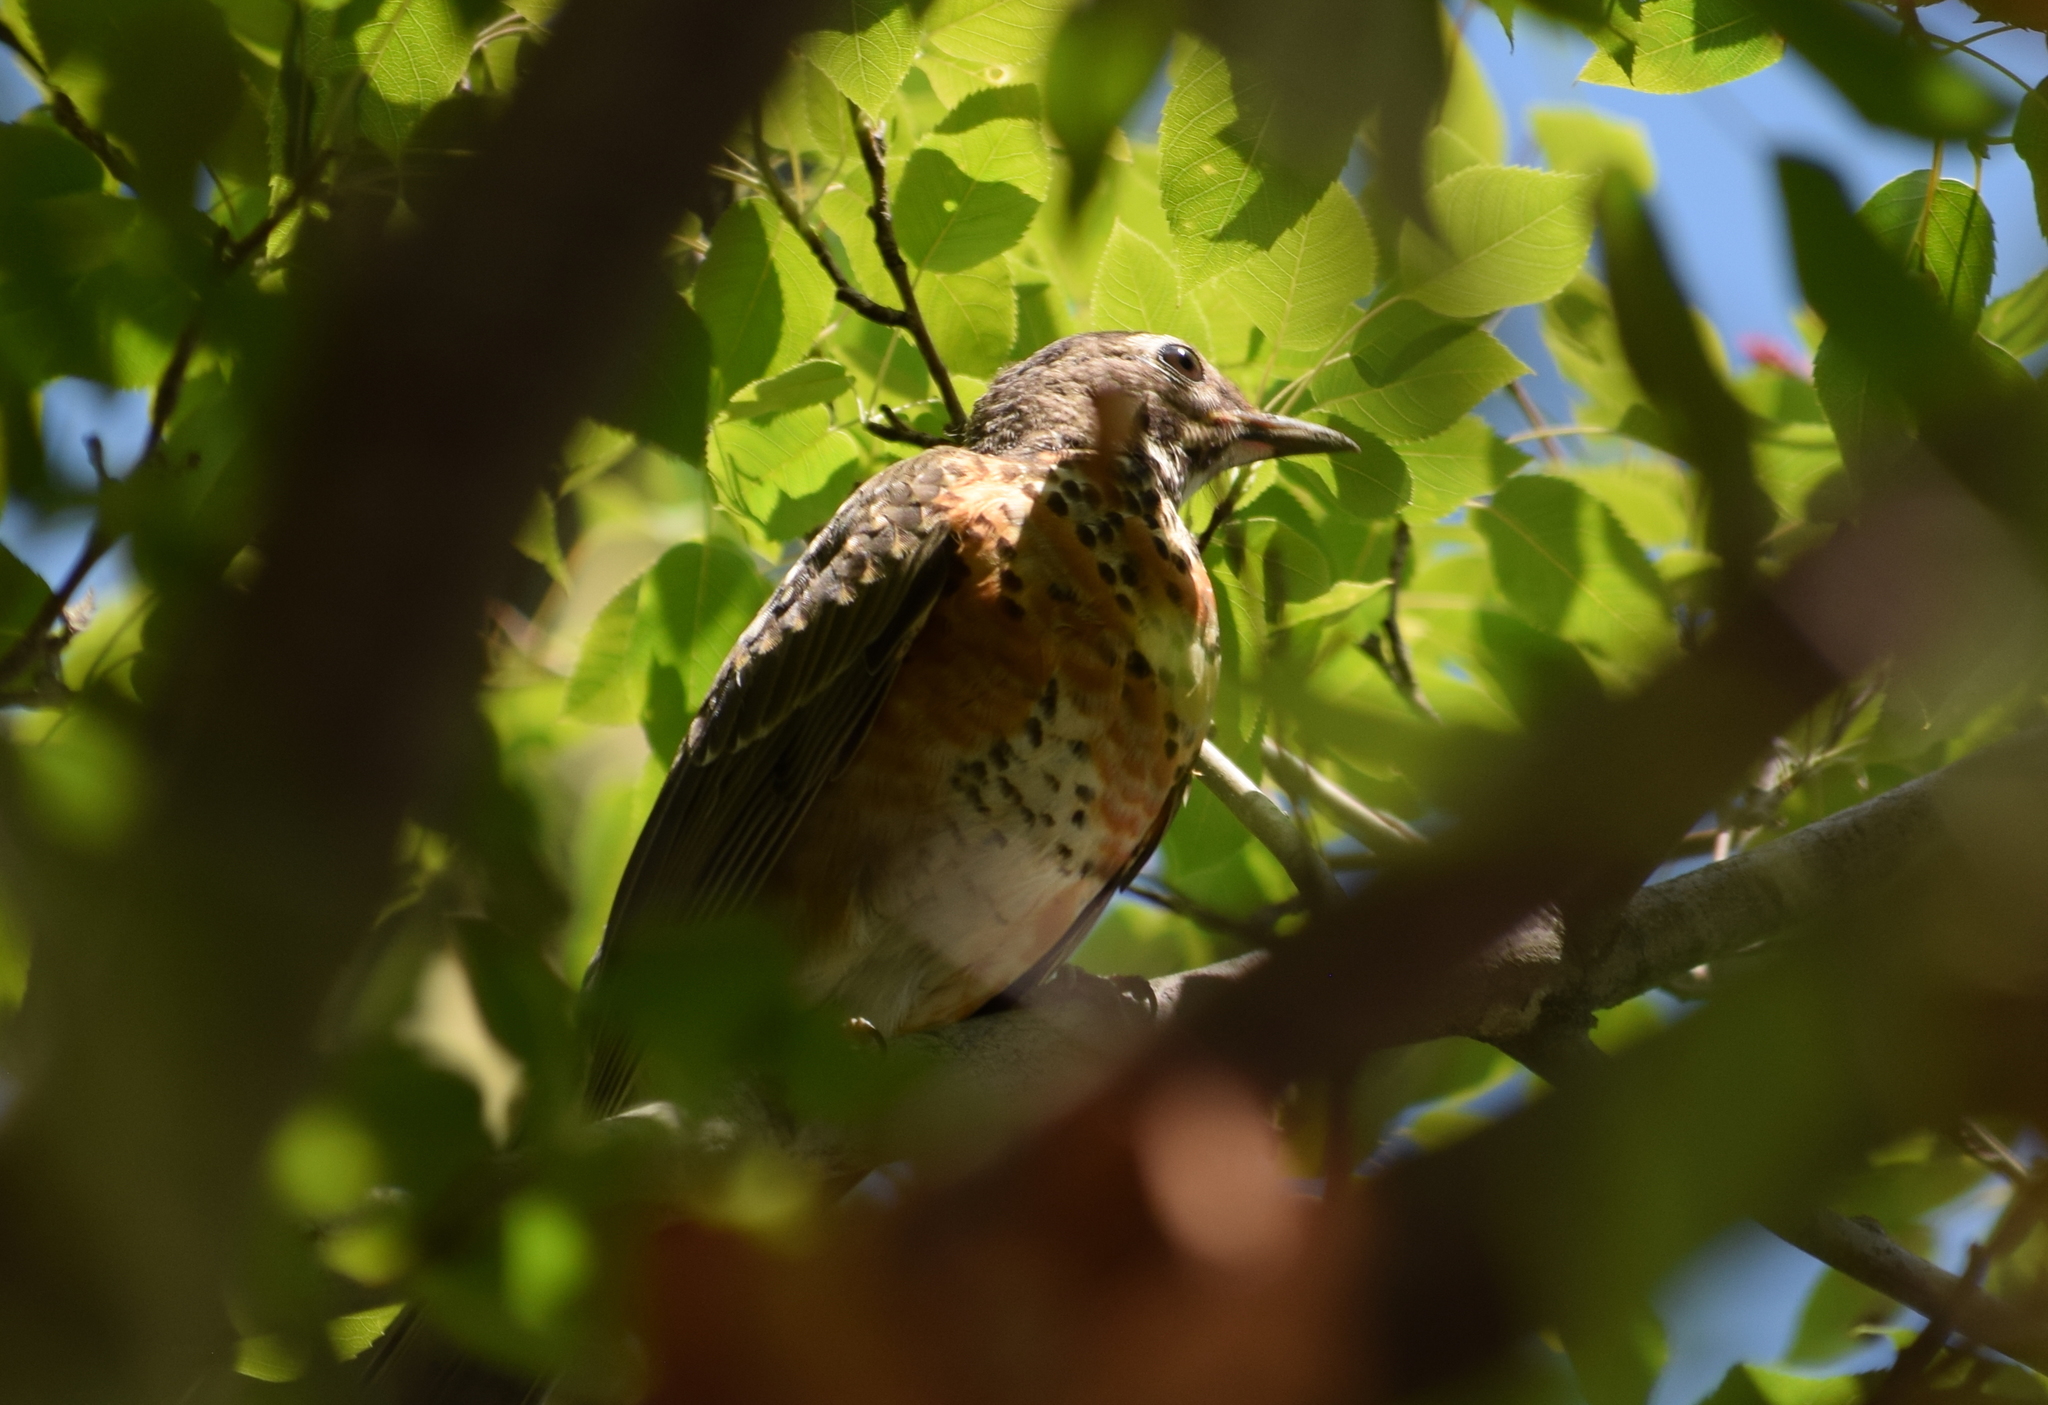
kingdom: Animalia
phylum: Chordata
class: Aves
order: Passeriformes
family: Turdidae
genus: Turdus
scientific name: Turdus migratorius
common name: American robin
